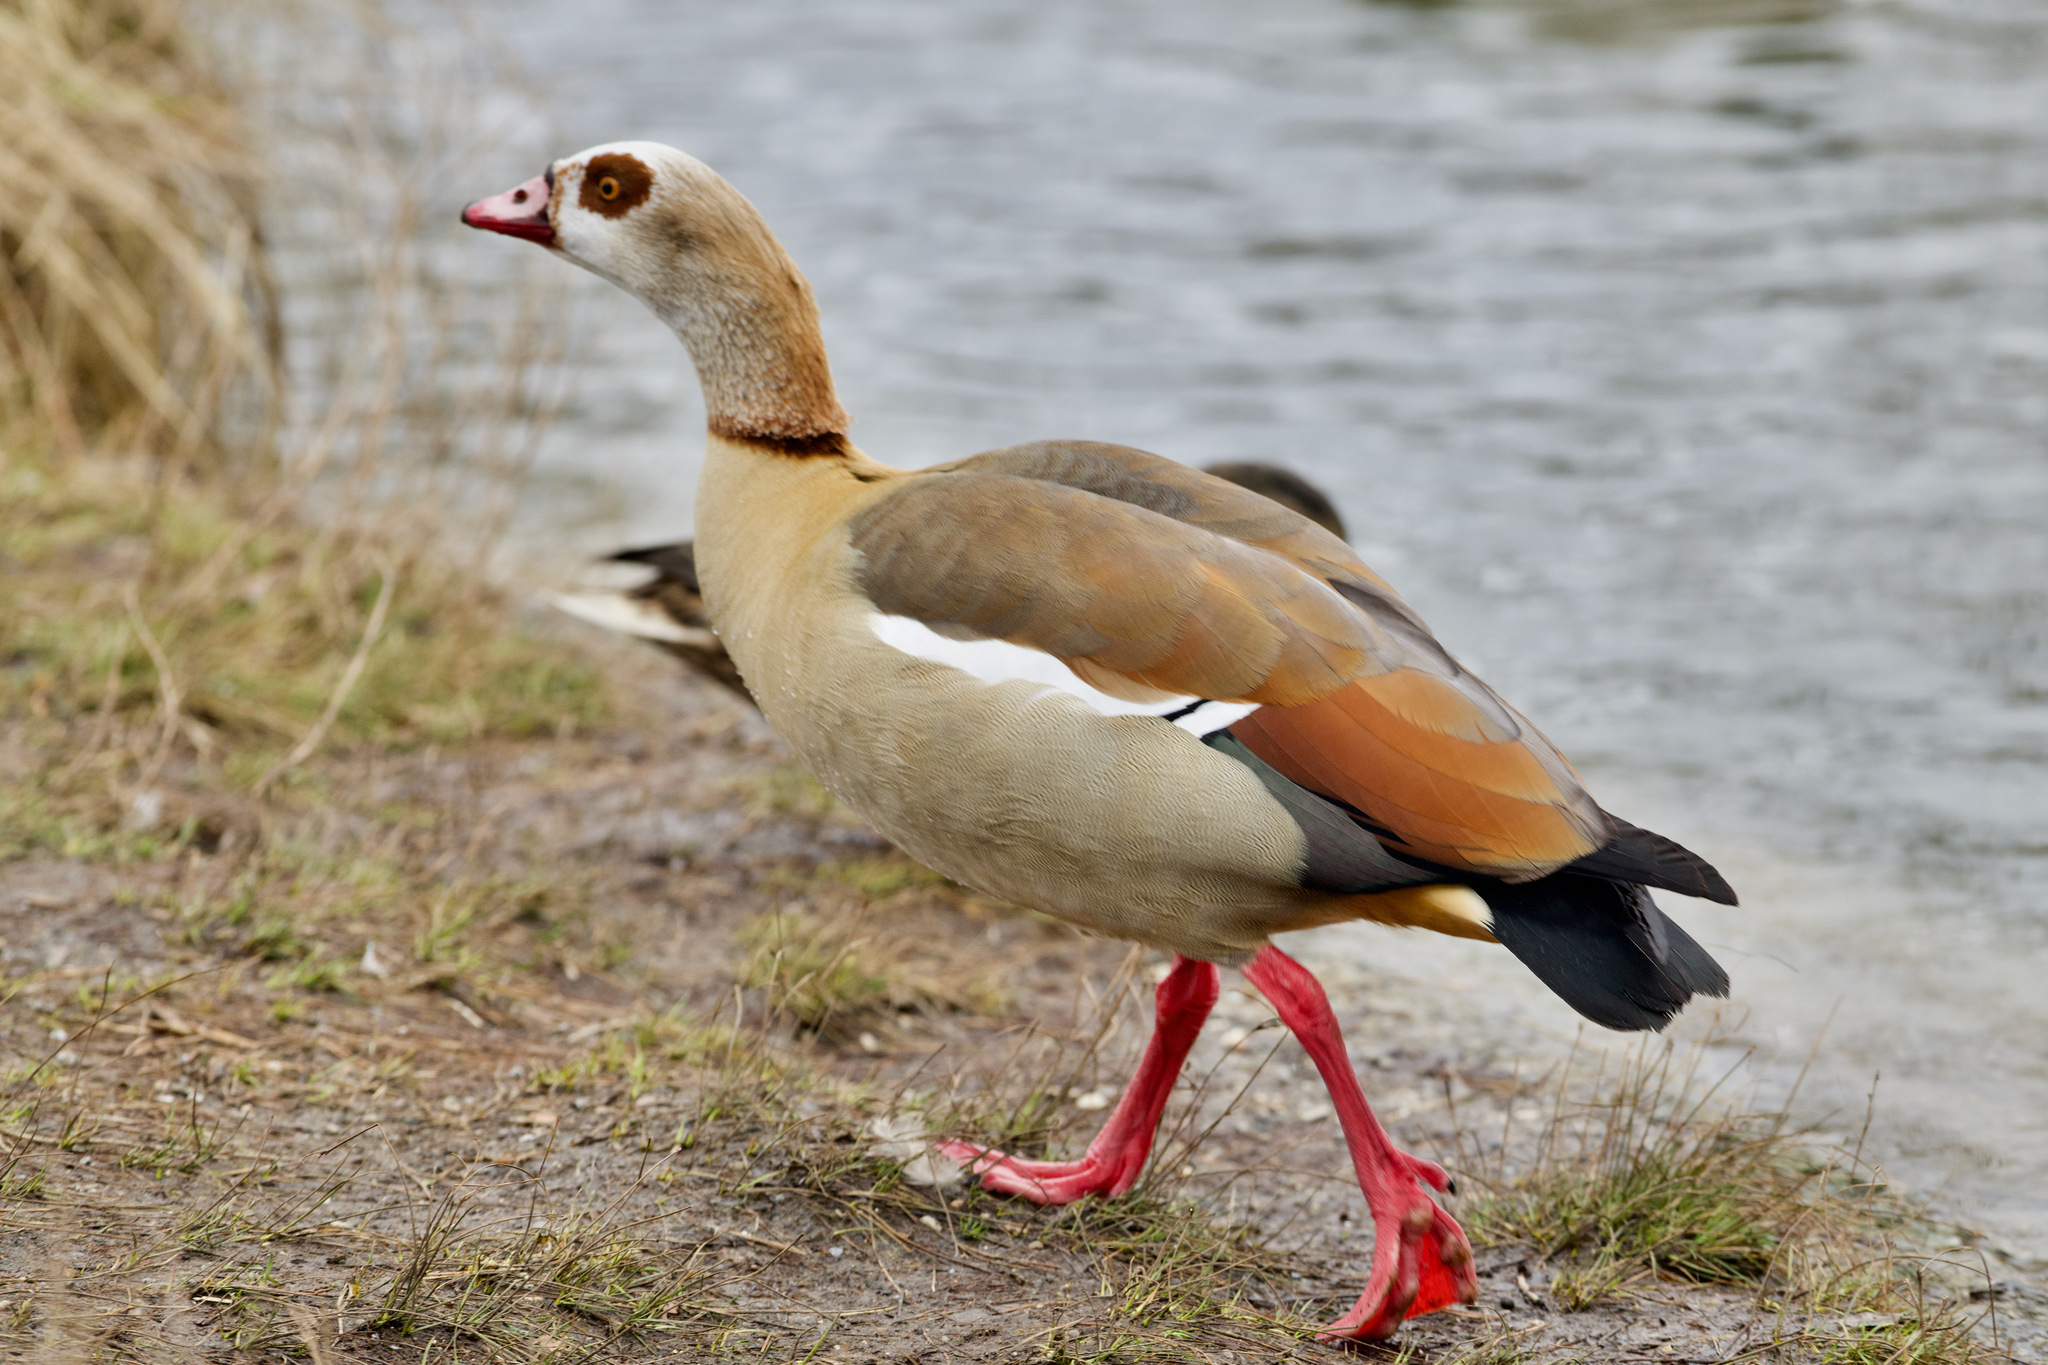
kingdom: Animalia
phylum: Chordata
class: Aves
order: Anseriformes
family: Anatidae
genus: Alopochen
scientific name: Alopochen aegyptiaca
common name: Egyptian goose
